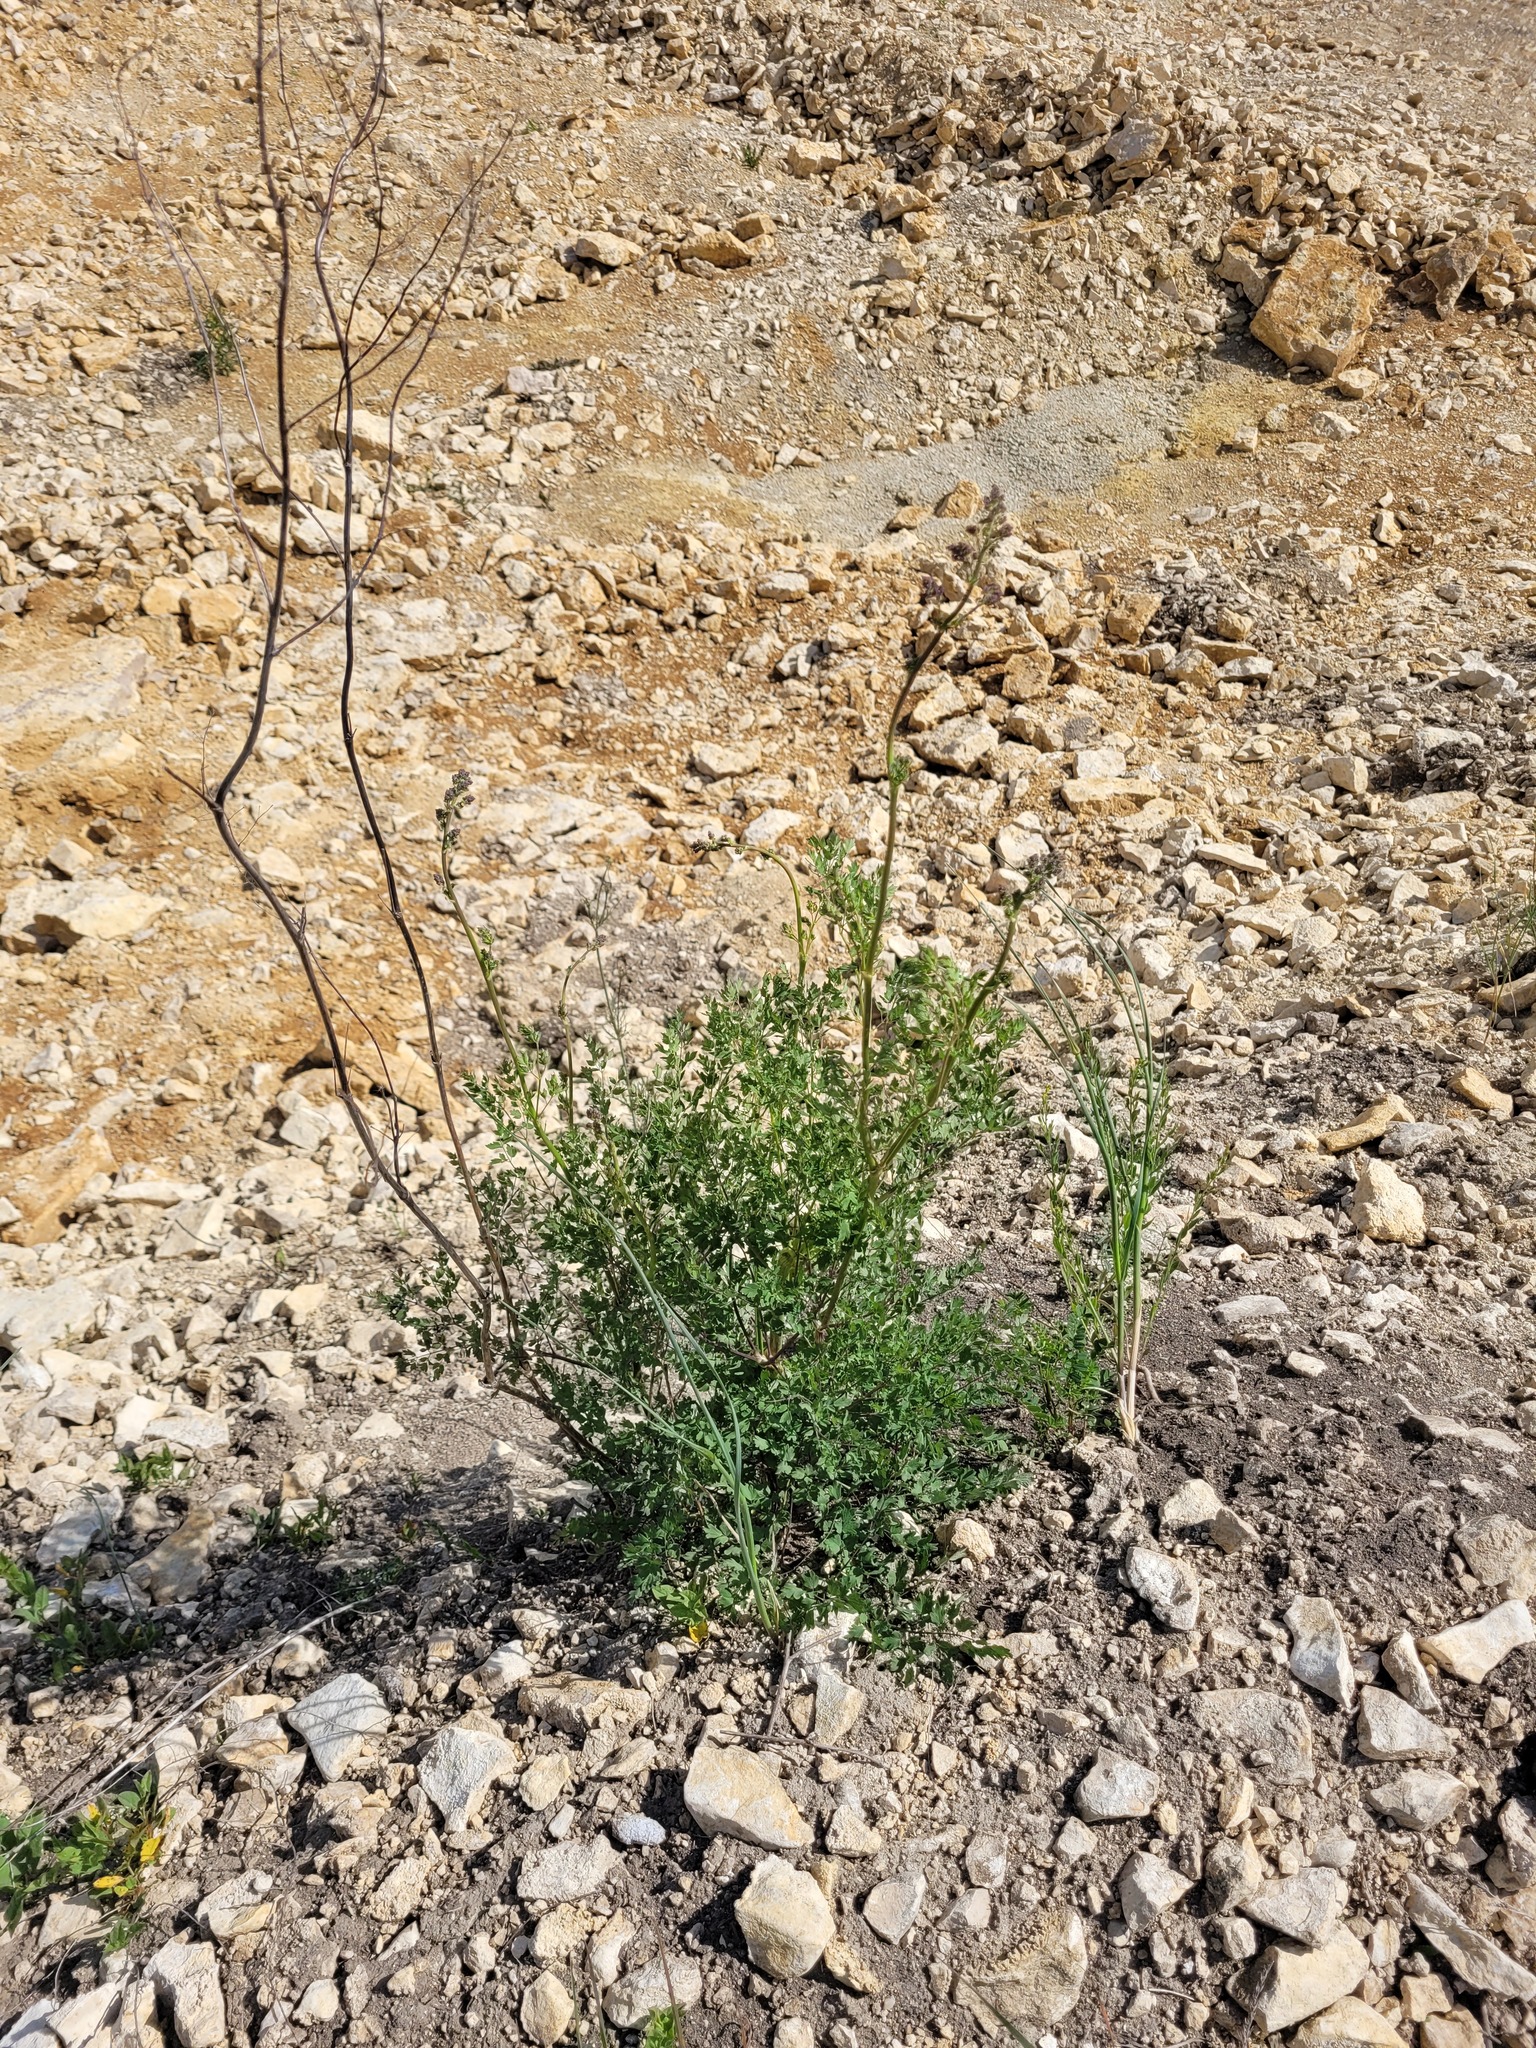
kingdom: Plantae
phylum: Tracheophyta
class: Magnoliopsida
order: Ranunculales
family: Ranunculaceae
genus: Thalictrum
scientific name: Thalictrum minus
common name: Lesser meadow-rue
